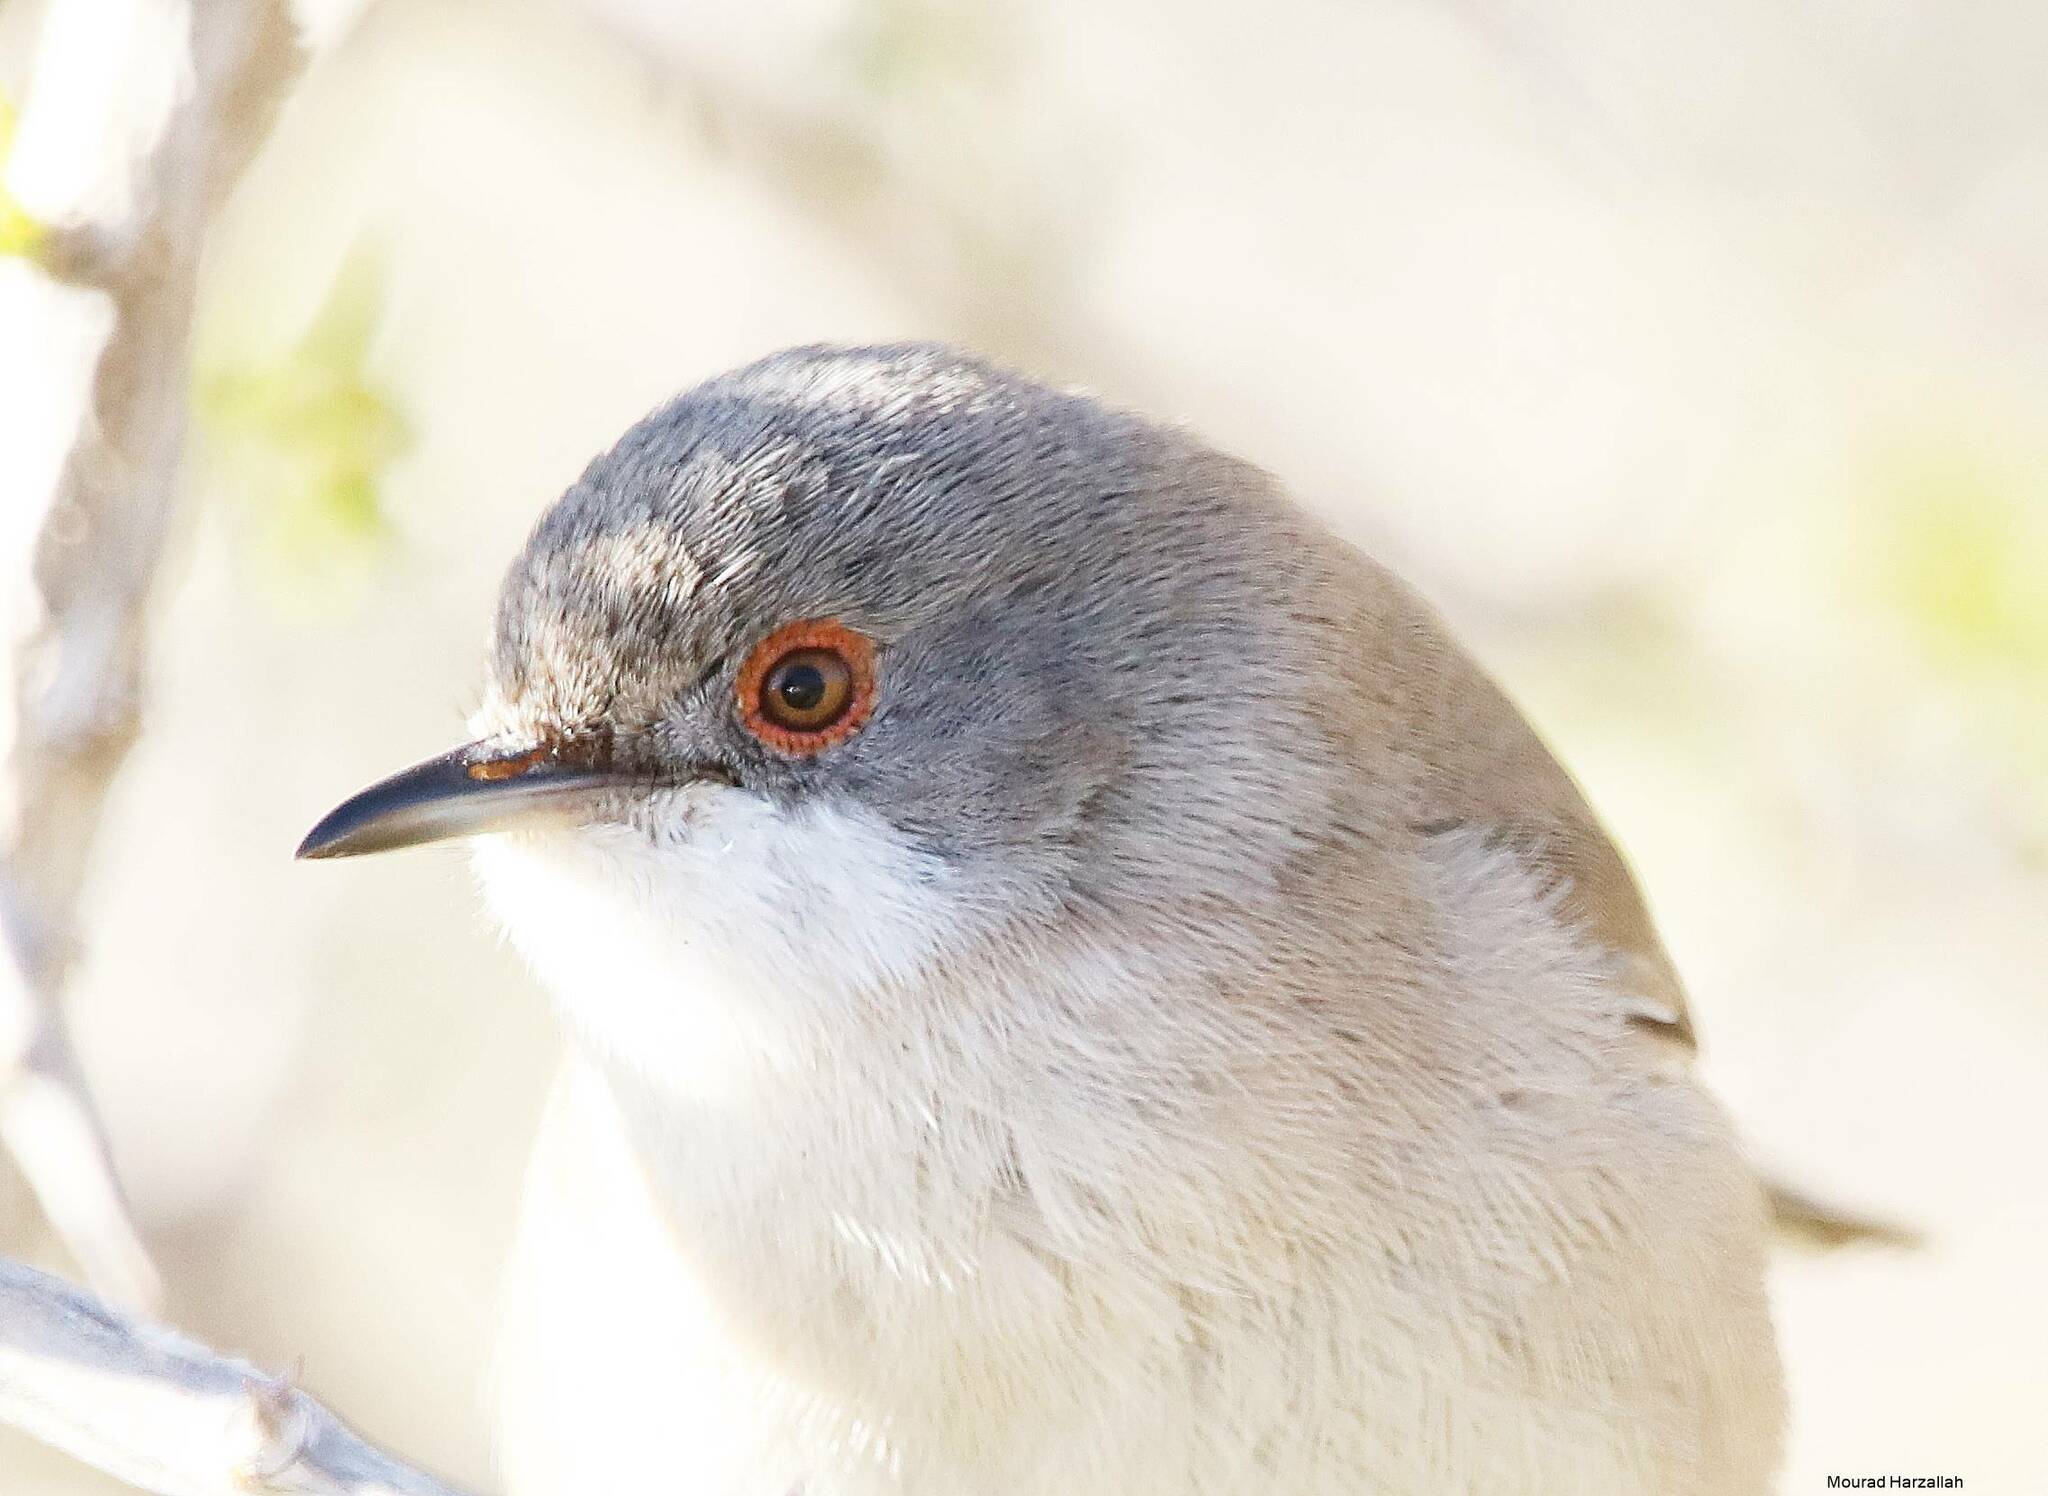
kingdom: Animalia
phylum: Chordata
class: Aves
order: Passeriformes
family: Sylviidae
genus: Curruca
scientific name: Curruca melanocephala
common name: Sardinian warbler
